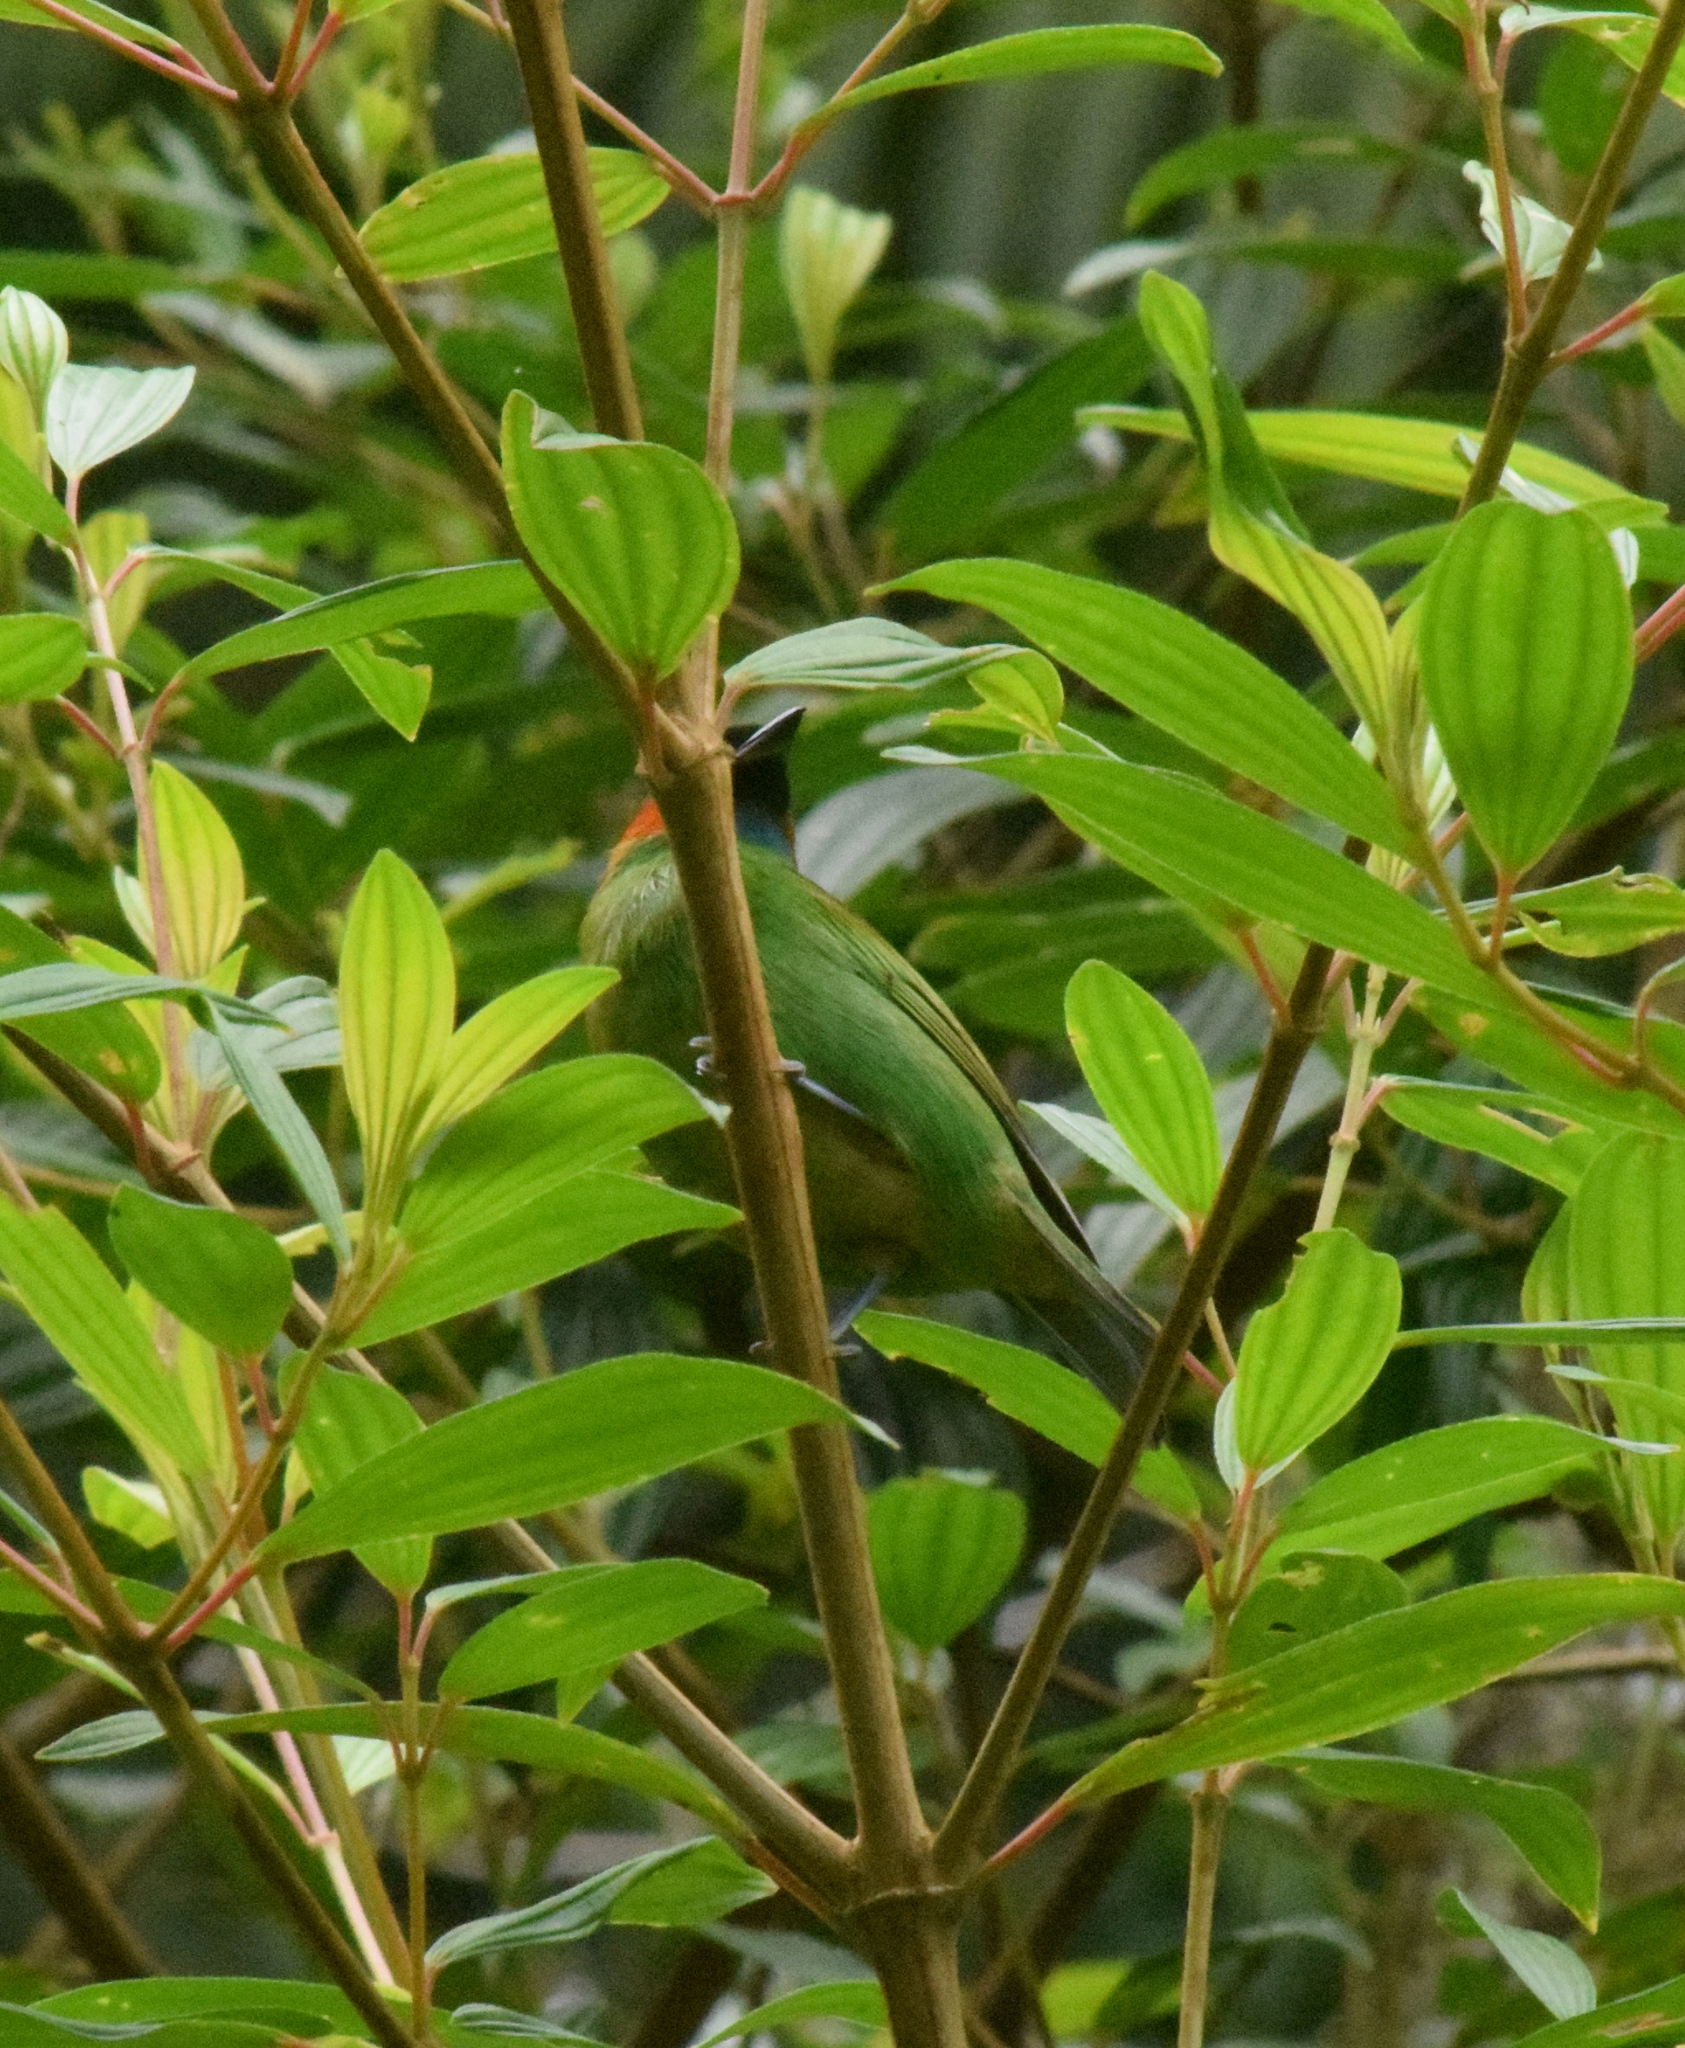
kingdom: Animalia
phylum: Chordata
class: Aves
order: Passeriformes
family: Thraupidae
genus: Tangara
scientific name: Tangara cyanocephala
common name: Red-necked tanager
